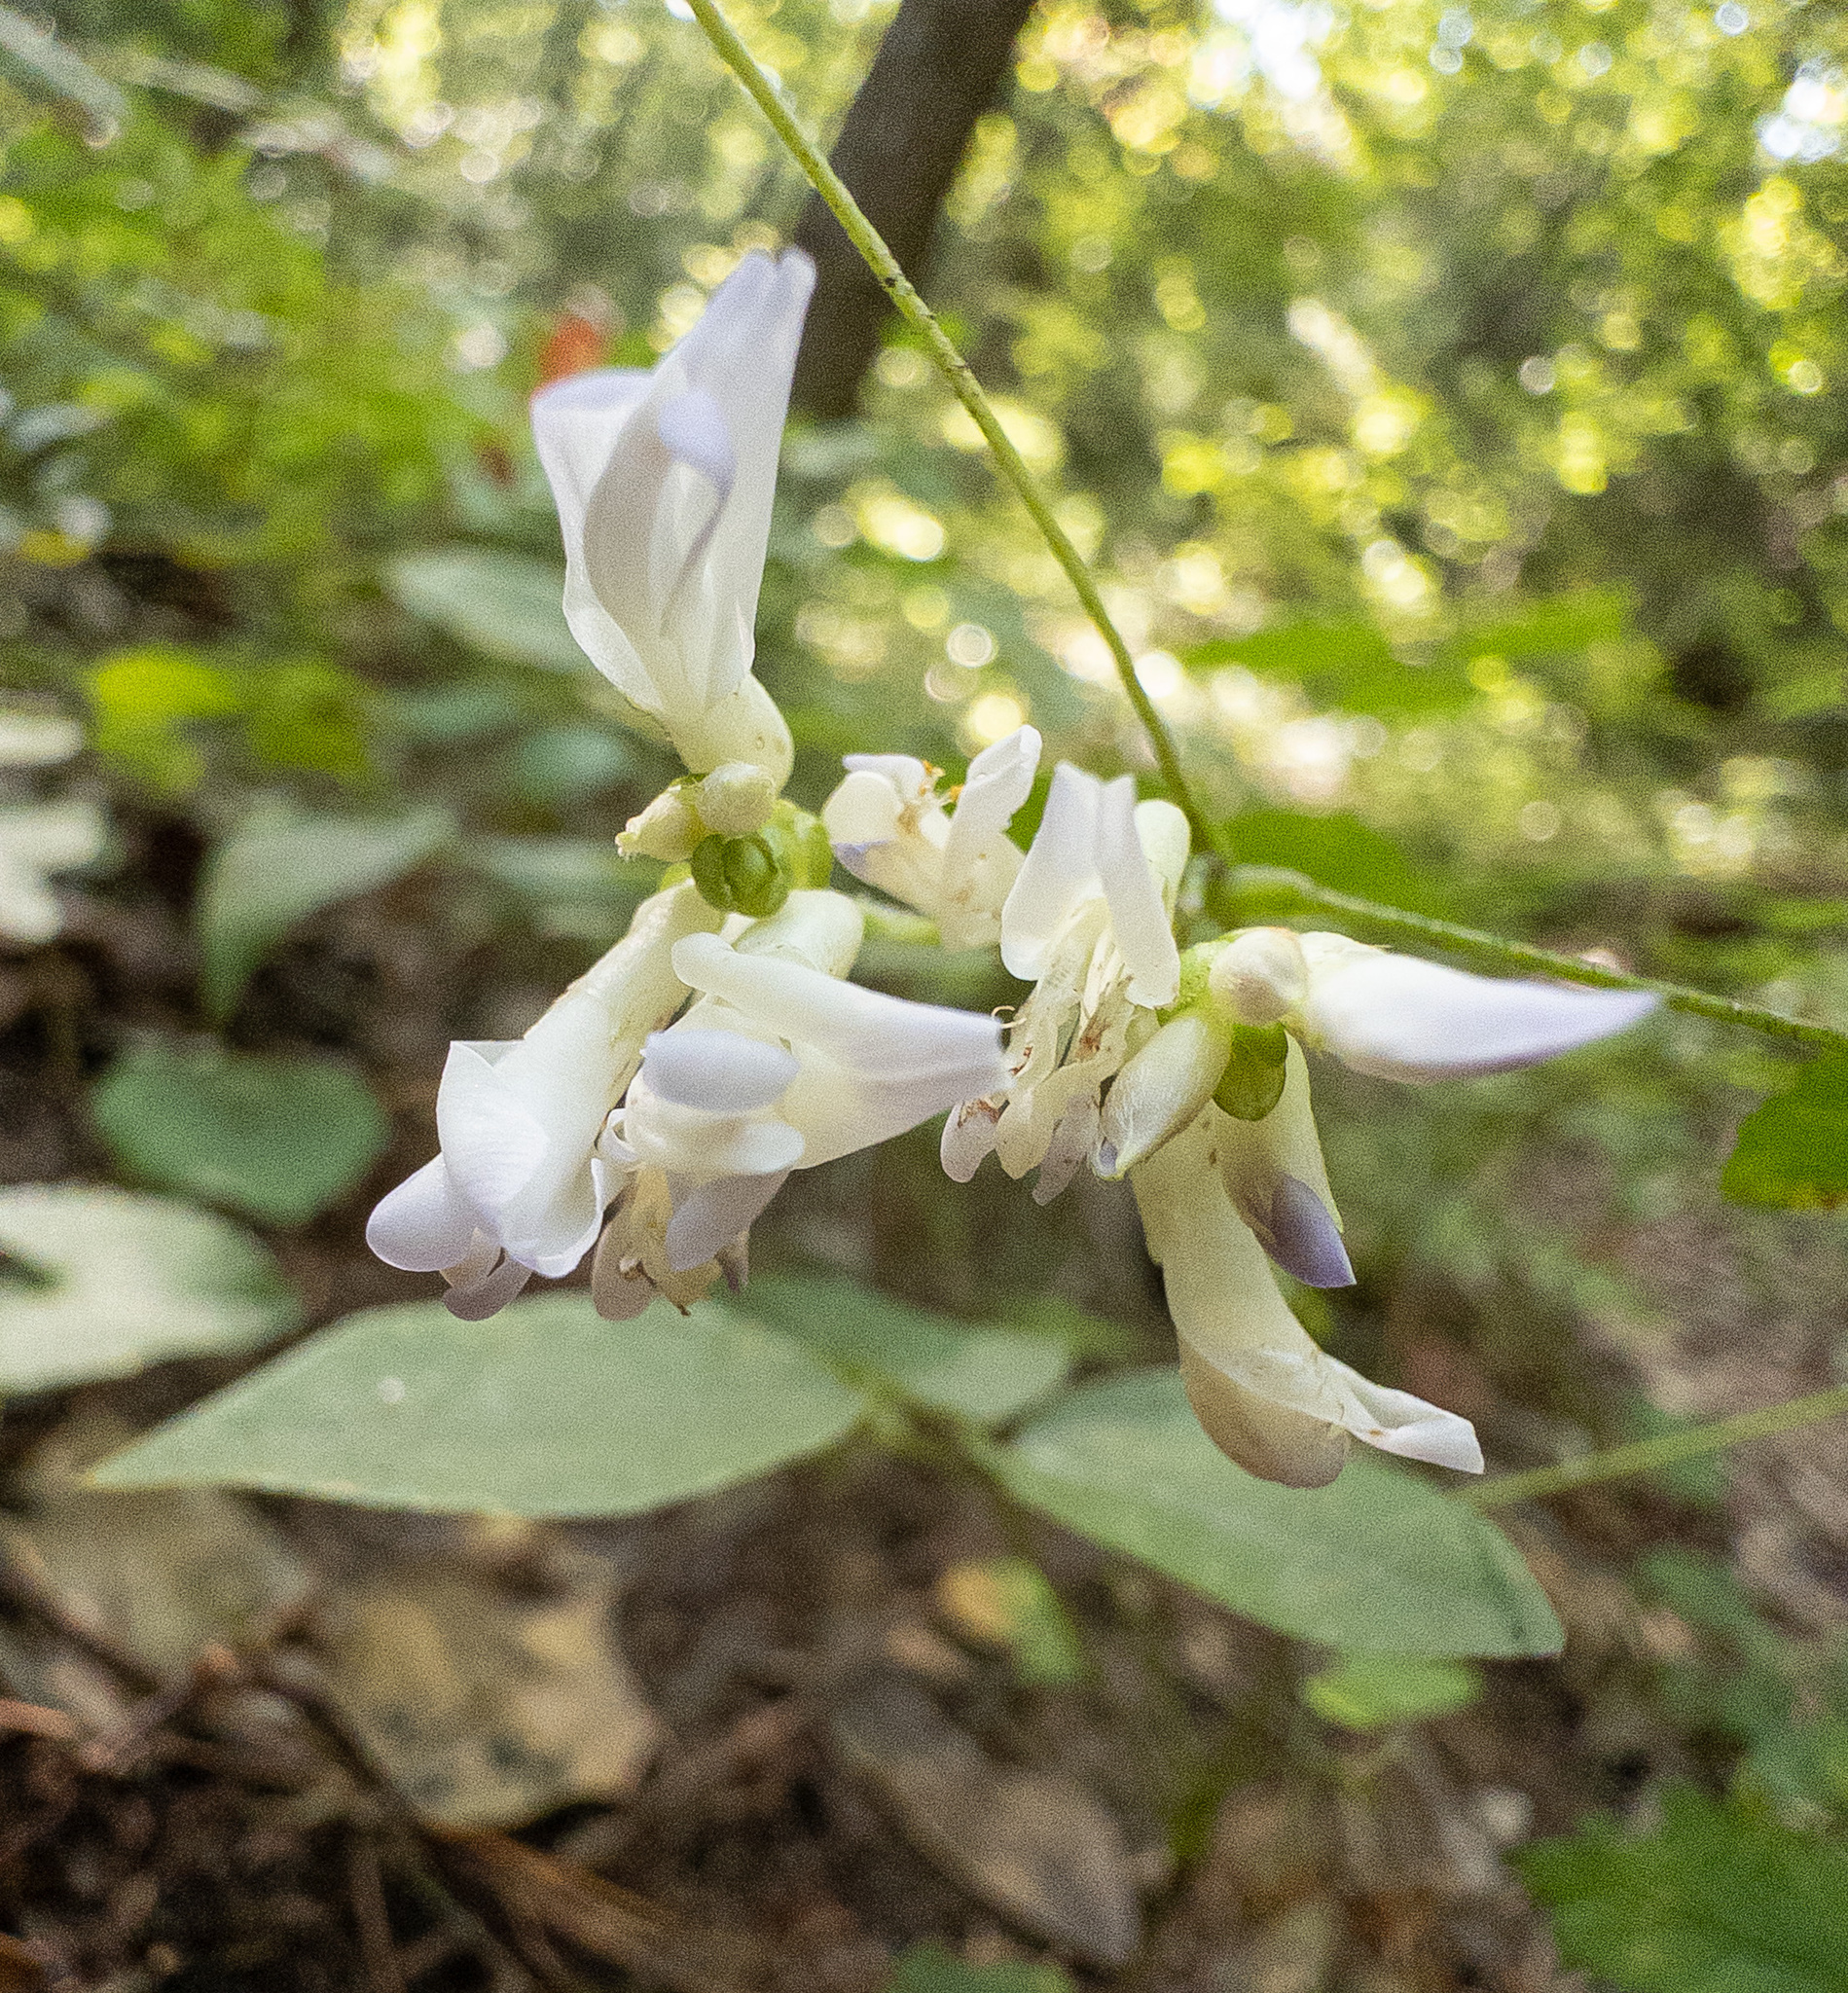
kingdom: Plantae
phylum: Tracheophyta
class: Magnoliopsida
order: Fabales
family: Fabaceae
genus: Amphicarpaea
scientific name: Amphicarpaea bracteata
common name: American hog peanut
